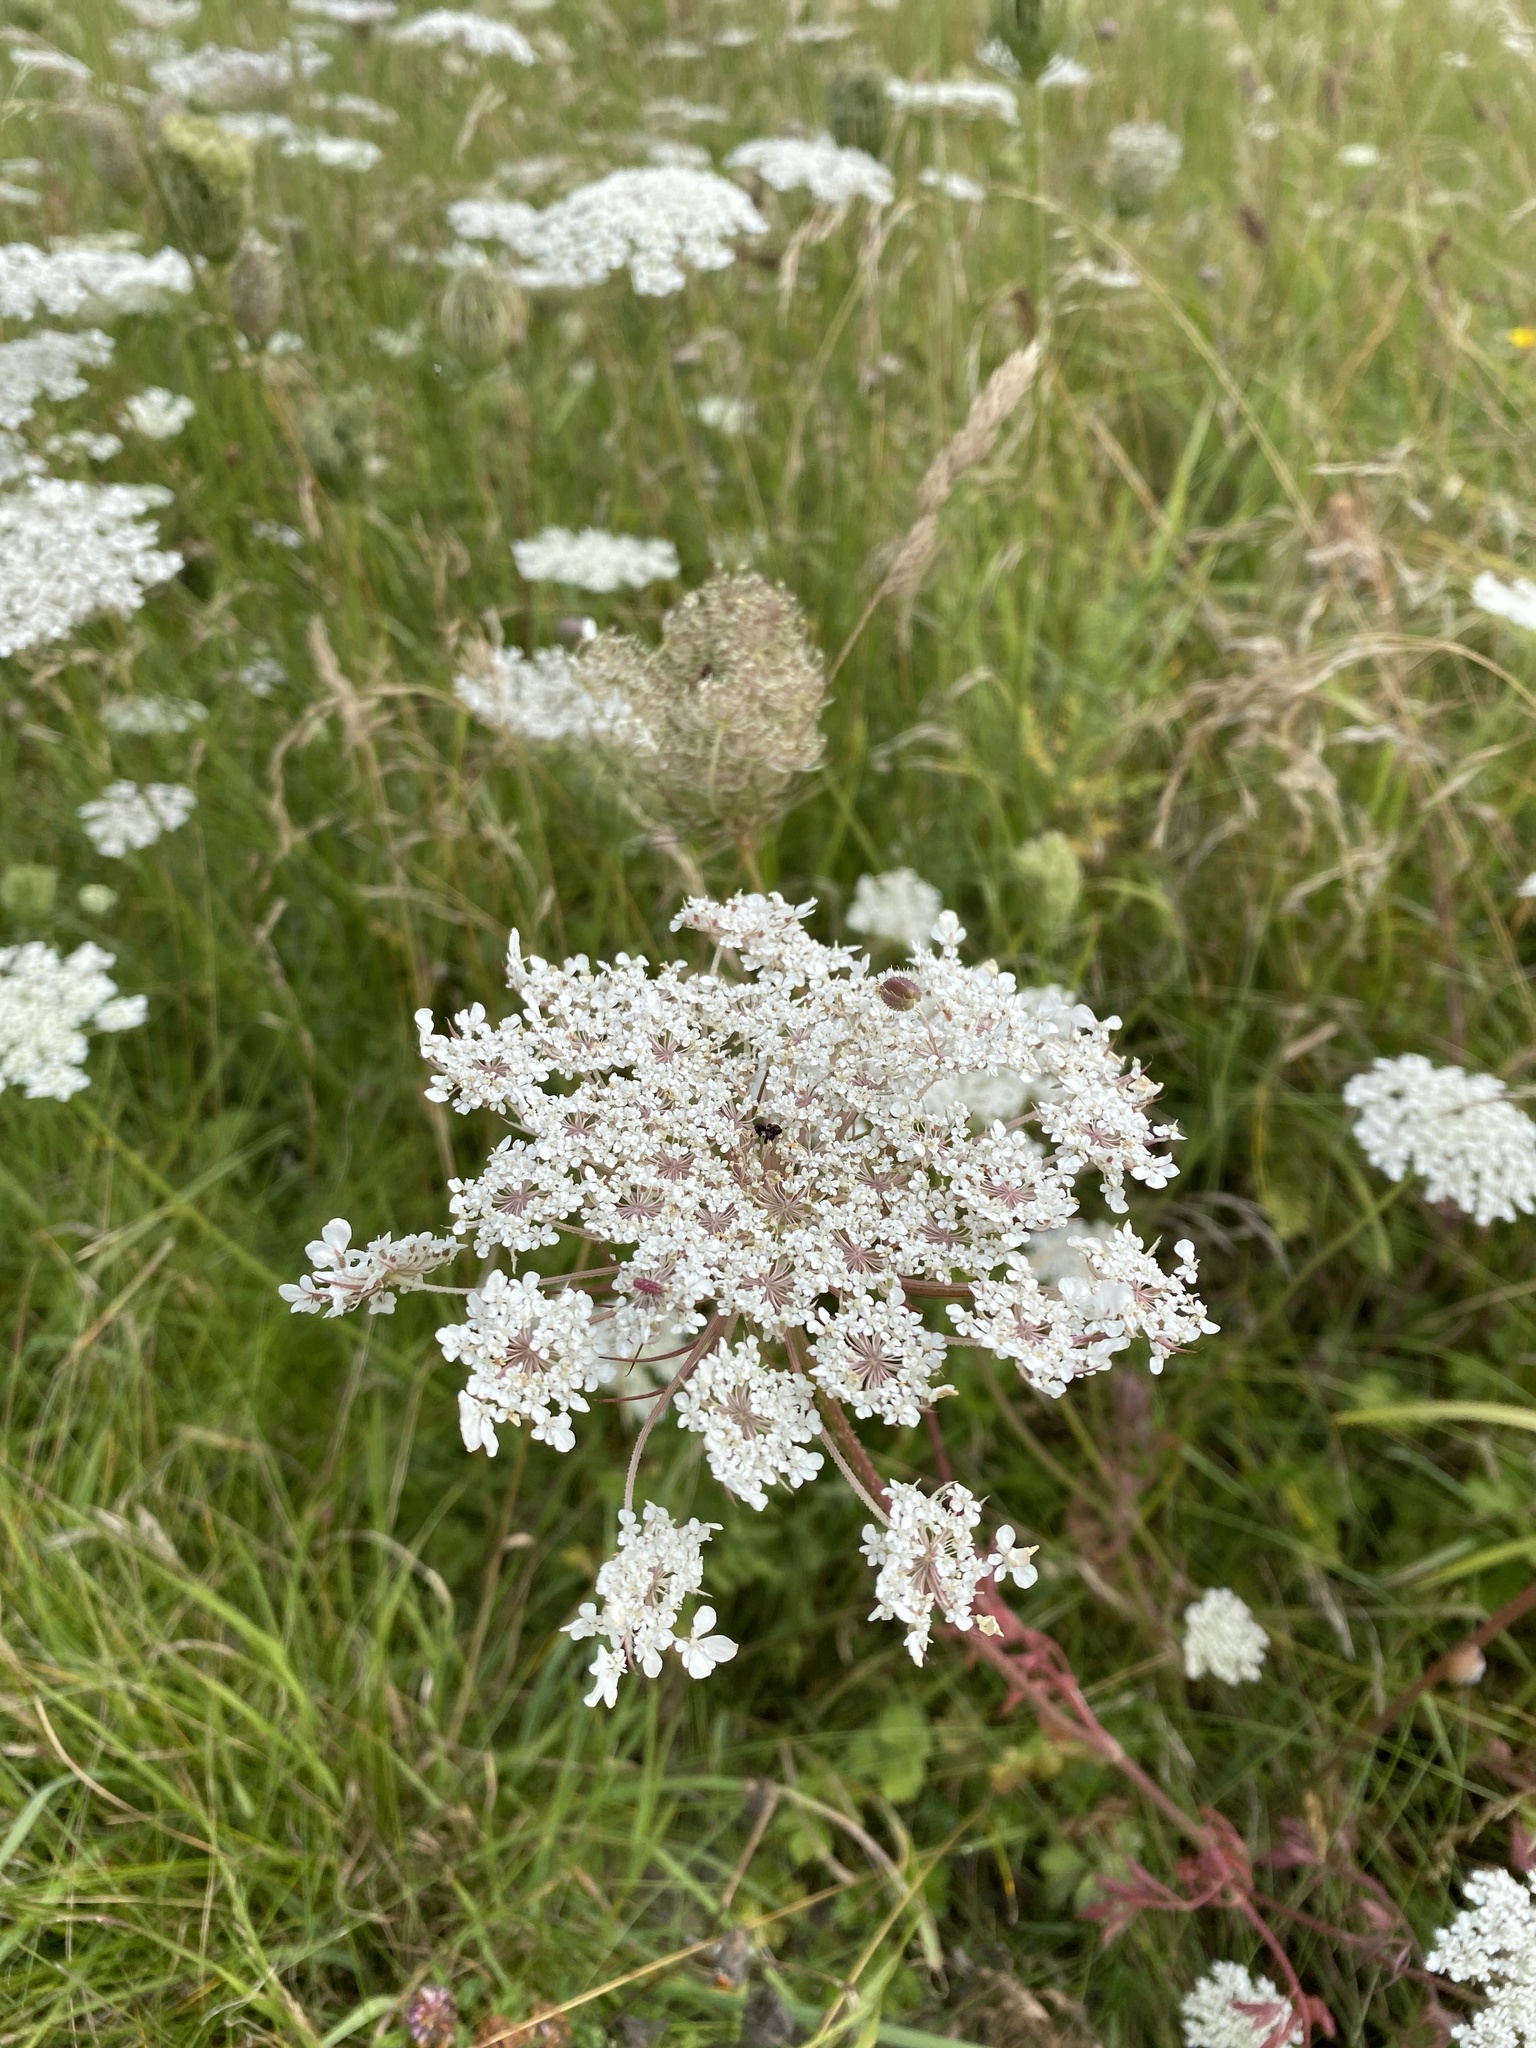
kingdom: Plantae
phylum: Tracheophyta
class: Magnoliopsida
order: Apiales
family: Apiaceae
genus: Daucus
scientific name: Daucus carota
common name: Wild carrot
